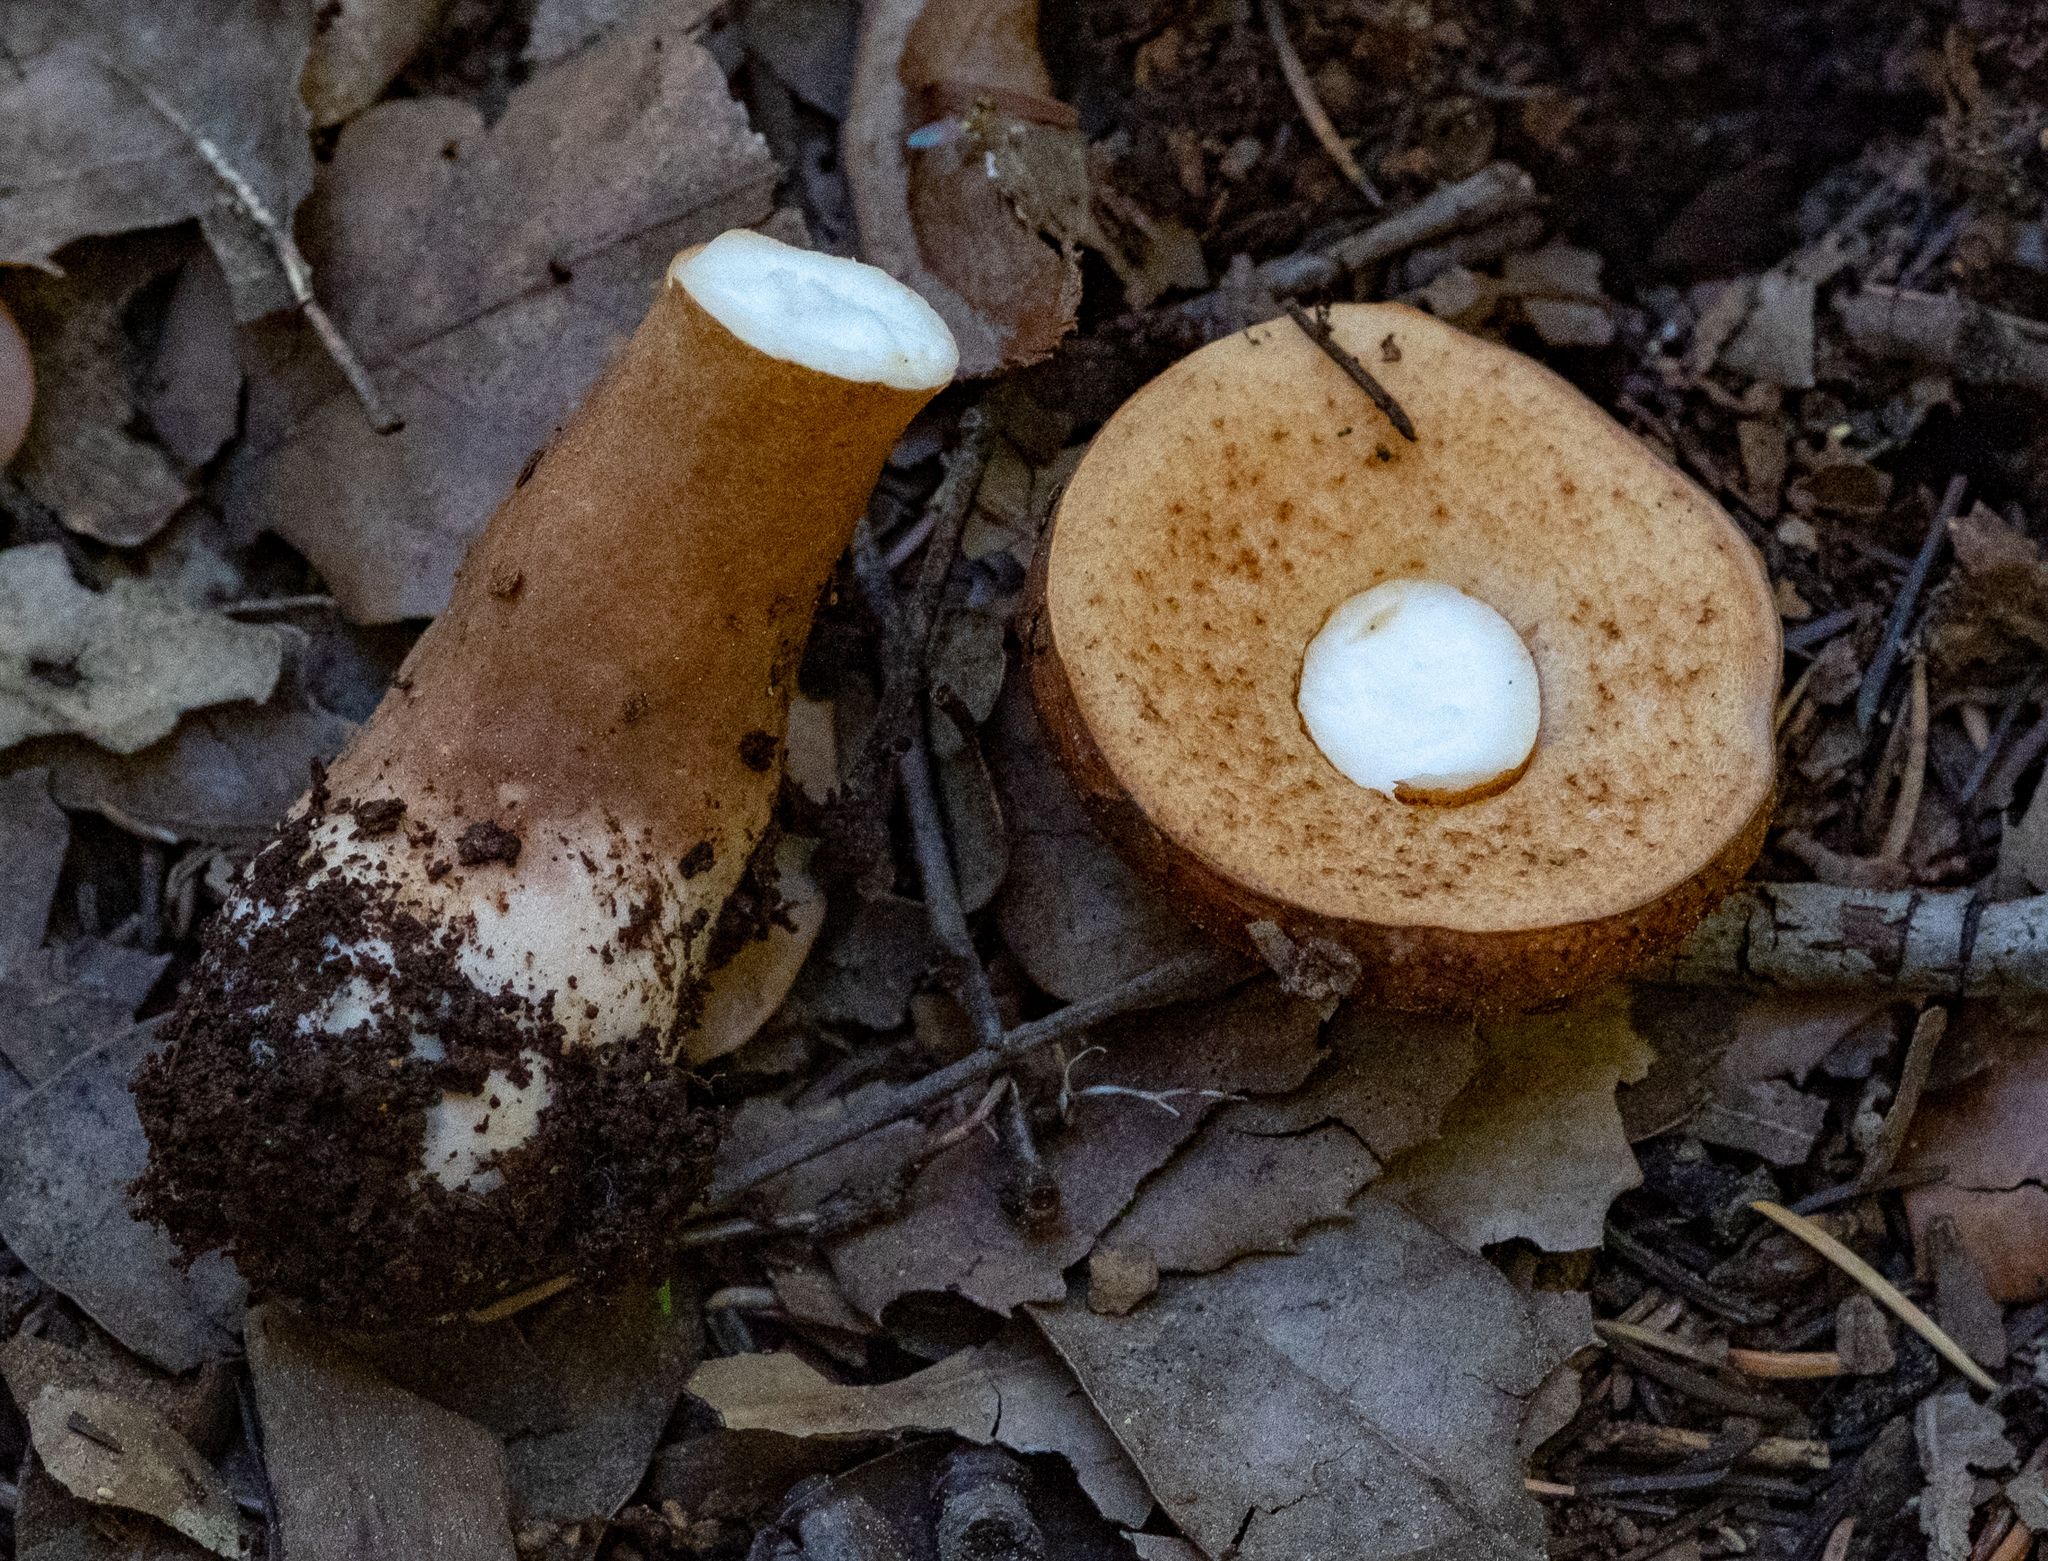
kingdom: Fungi
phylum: Basidiomycota
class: Agaricomycetes
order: Boletales
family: Gyroporaceae
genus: Gyroporus
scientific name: Gyroporus castaneus
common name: Chestnut bolete
